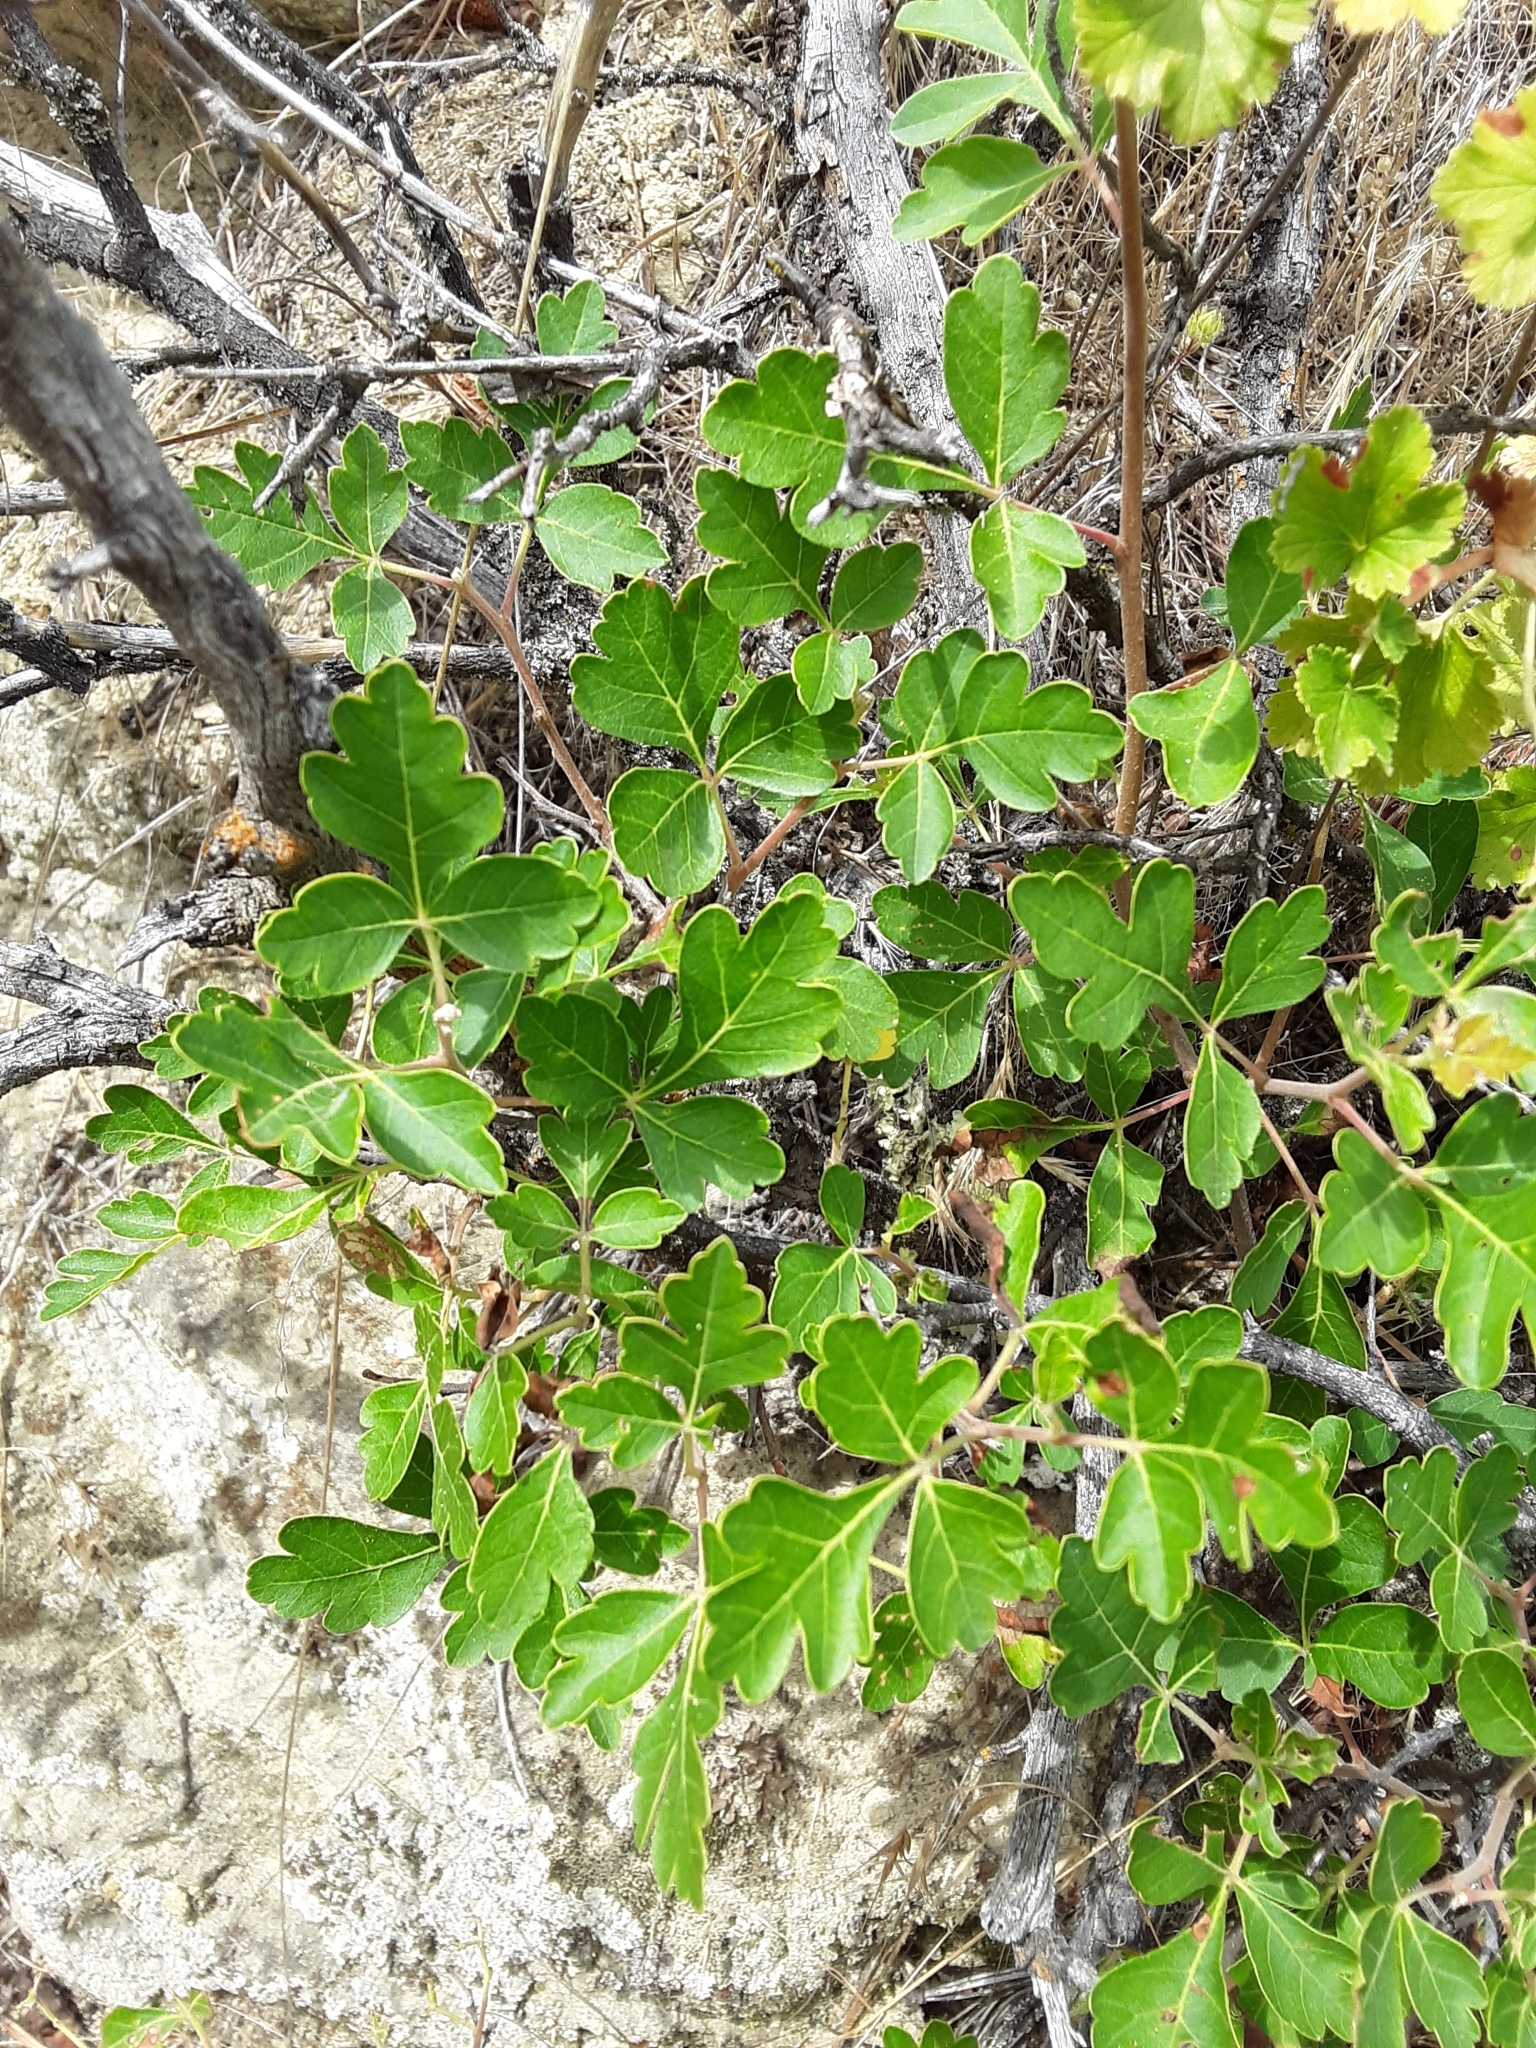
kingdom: Plantae
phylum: Tracheophyta
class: Magnoliopsida
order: Sapindales
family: Anacardiaceae
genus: Rhus
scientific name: Rhus aromatica
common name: Aromatic sumac
